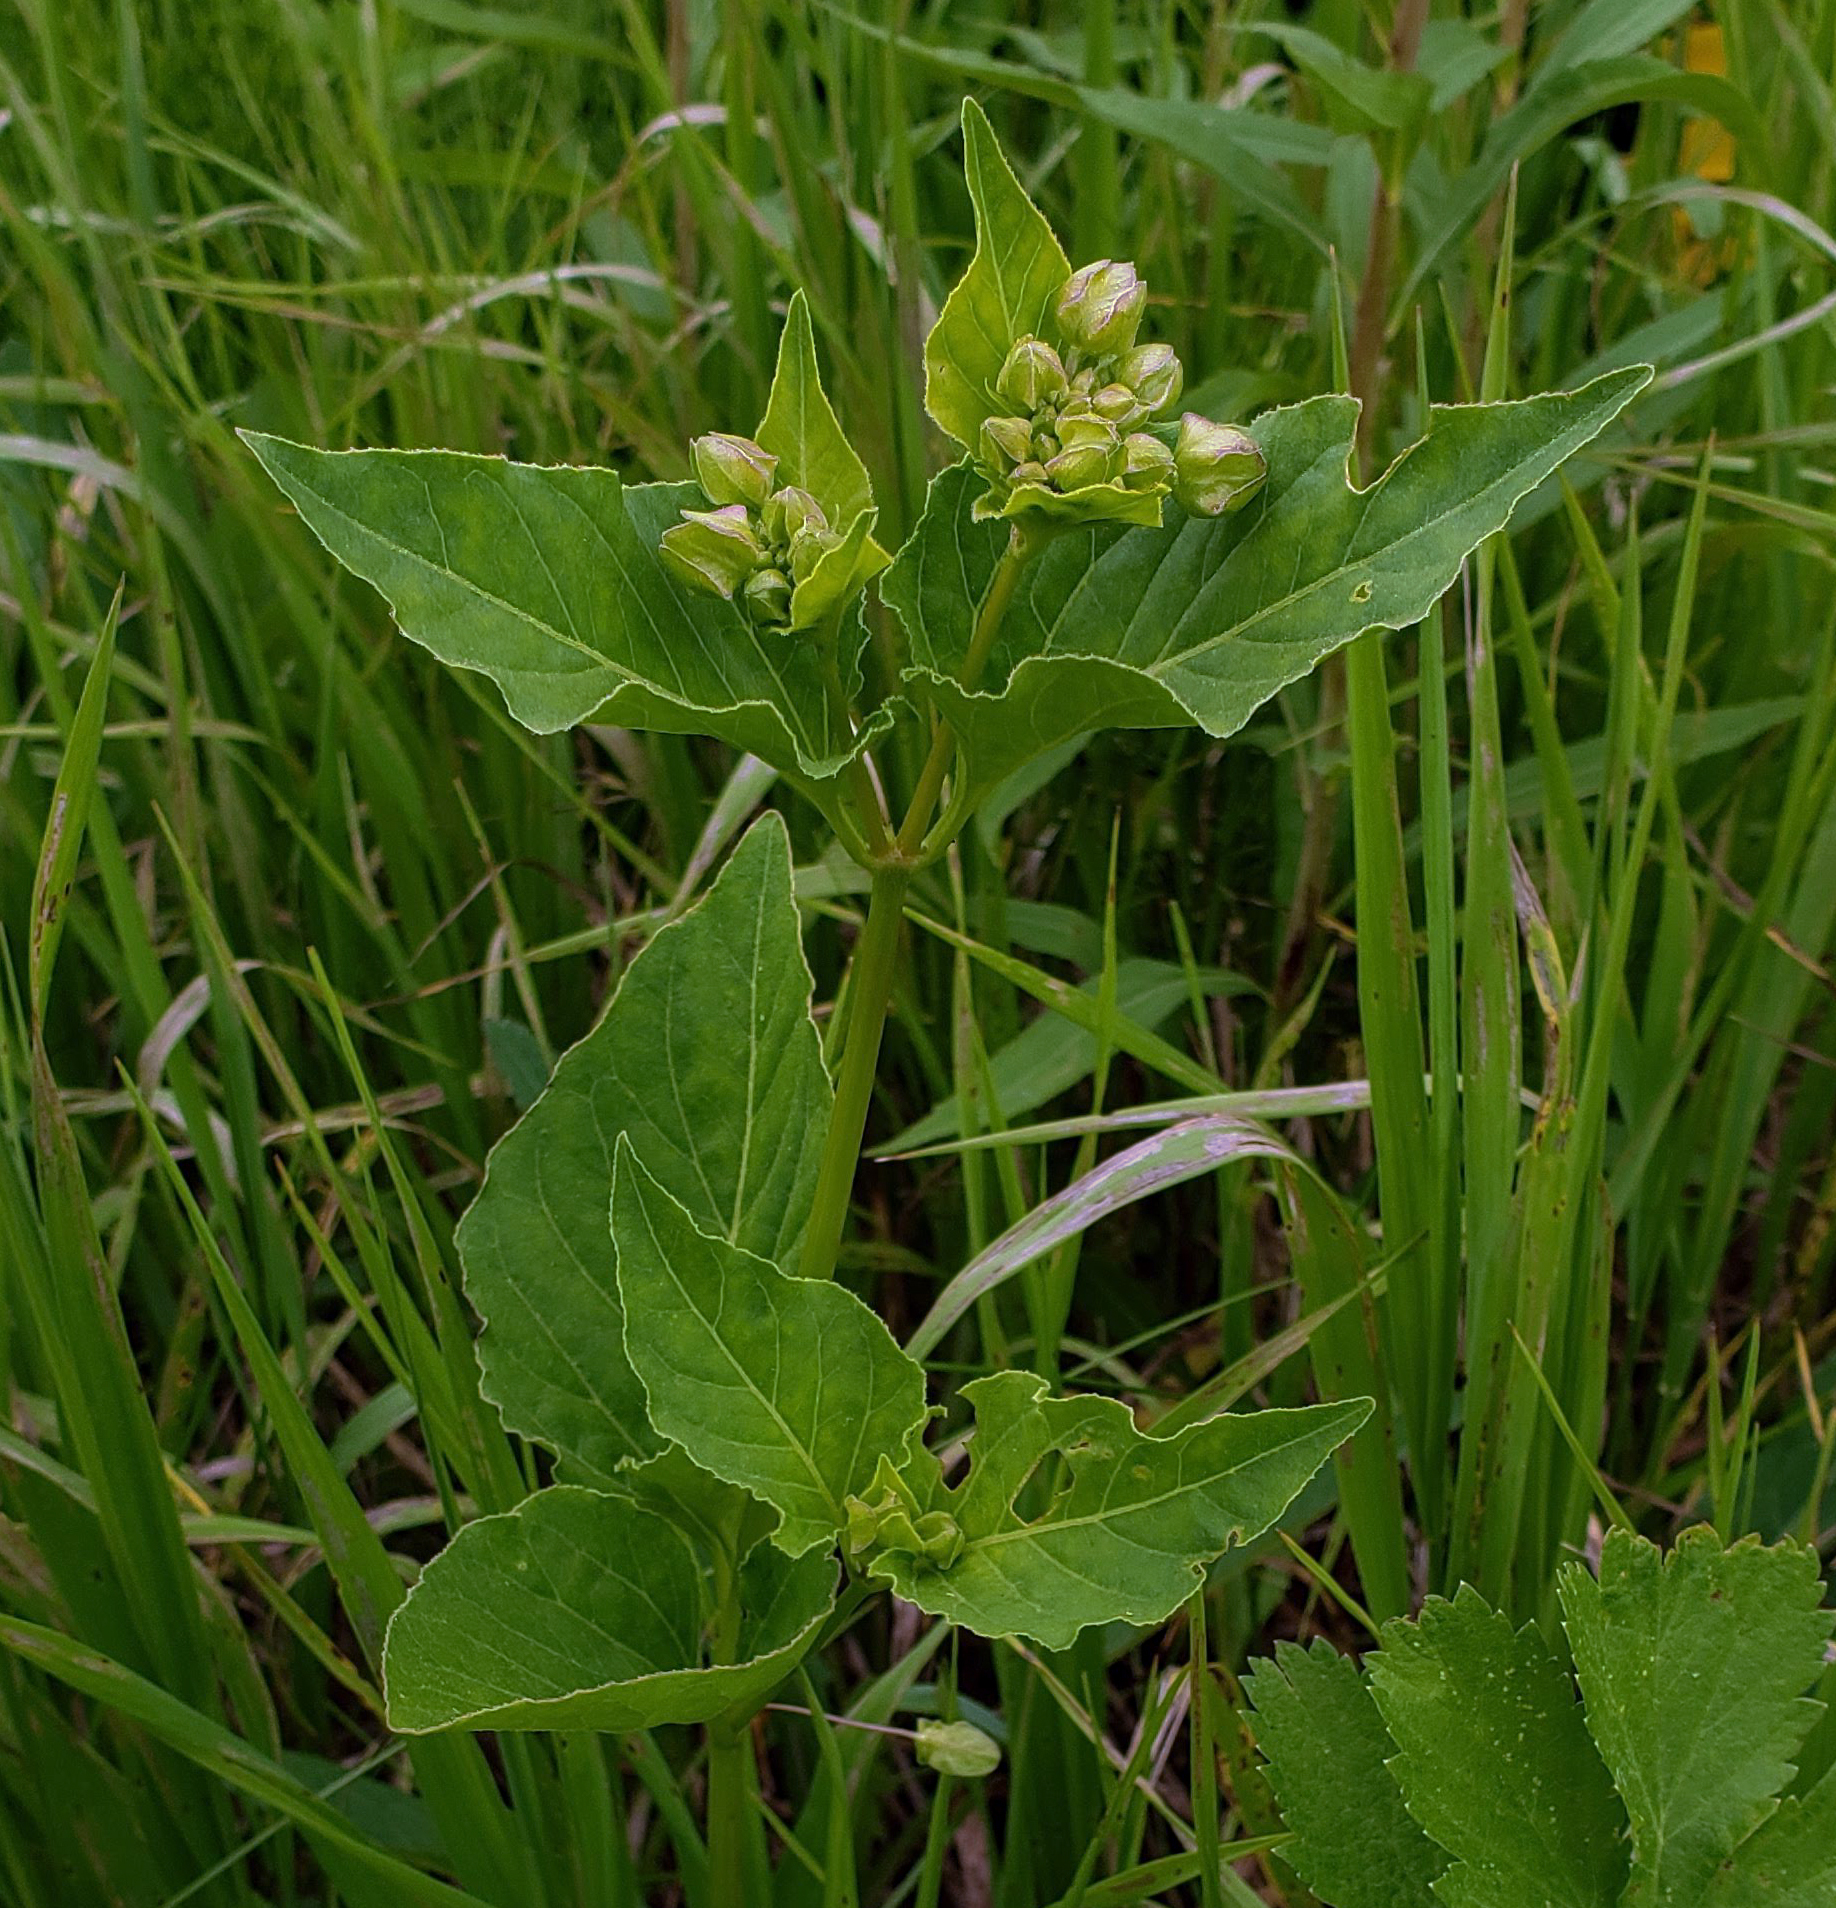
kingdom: Plantae
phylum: Tracheophyta
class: Magnoliopsida
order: Caryophyllales
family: Nyctaginaceae
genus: Mirabilis
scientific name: Mirabilis nyctaginea
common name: Umbrella wort
